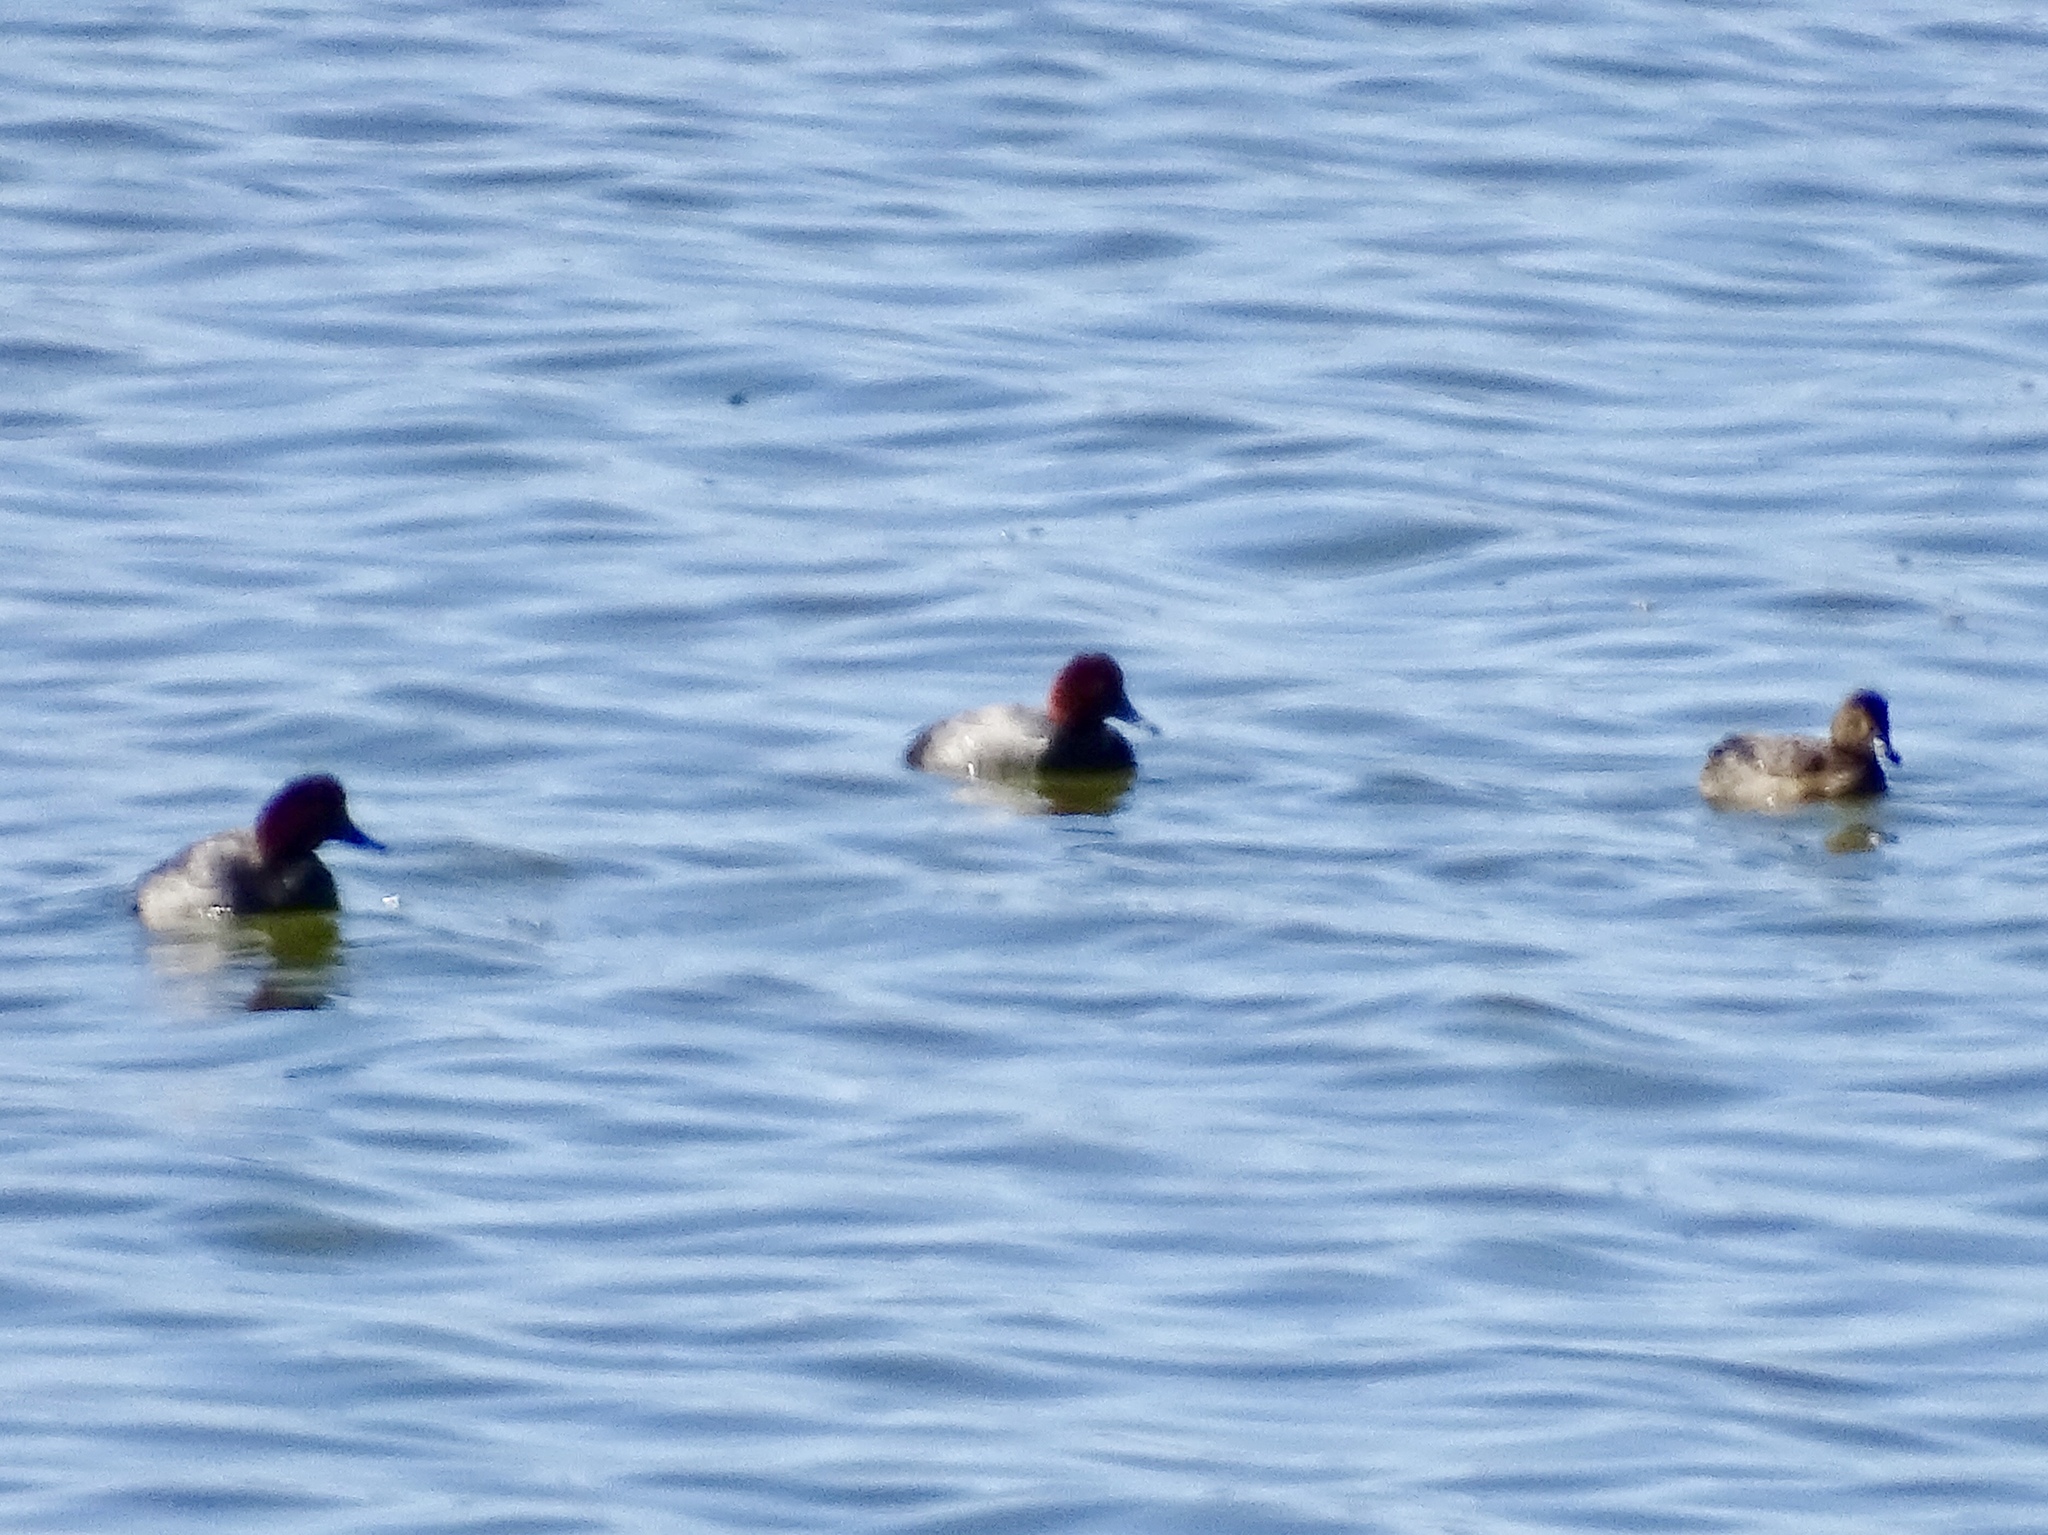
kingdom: Animalia
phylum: Chordata
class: Aves
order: Anseriformes
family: Anatidae
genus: Aythya
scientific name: Aythya americana
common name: Redhead
